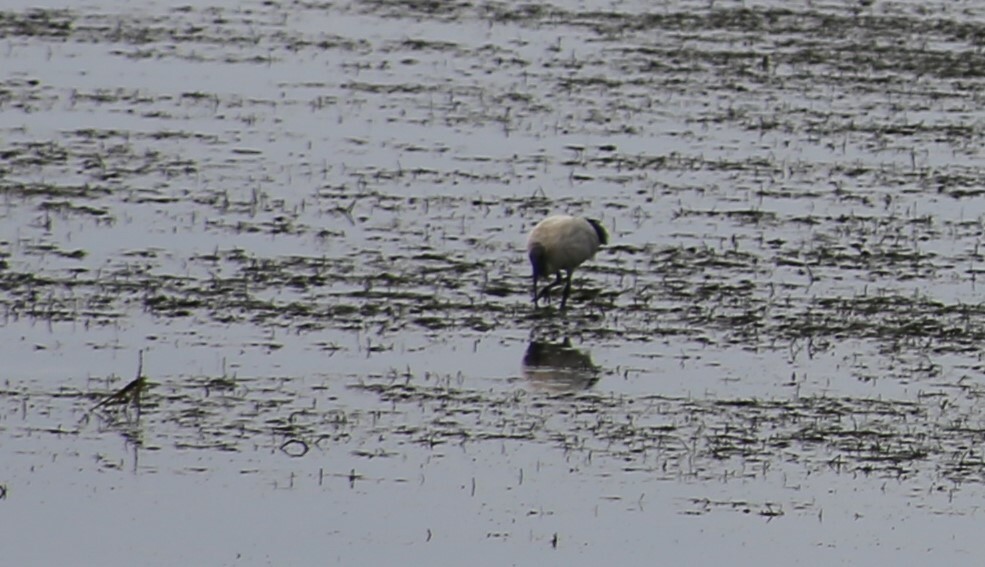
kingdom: Animalia
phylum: Chordata
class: Aves
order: Pelecaniformes
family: Threskiornithidae
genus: Threskiornis
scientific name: Threskiornis molucca
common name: Australian white ibis
